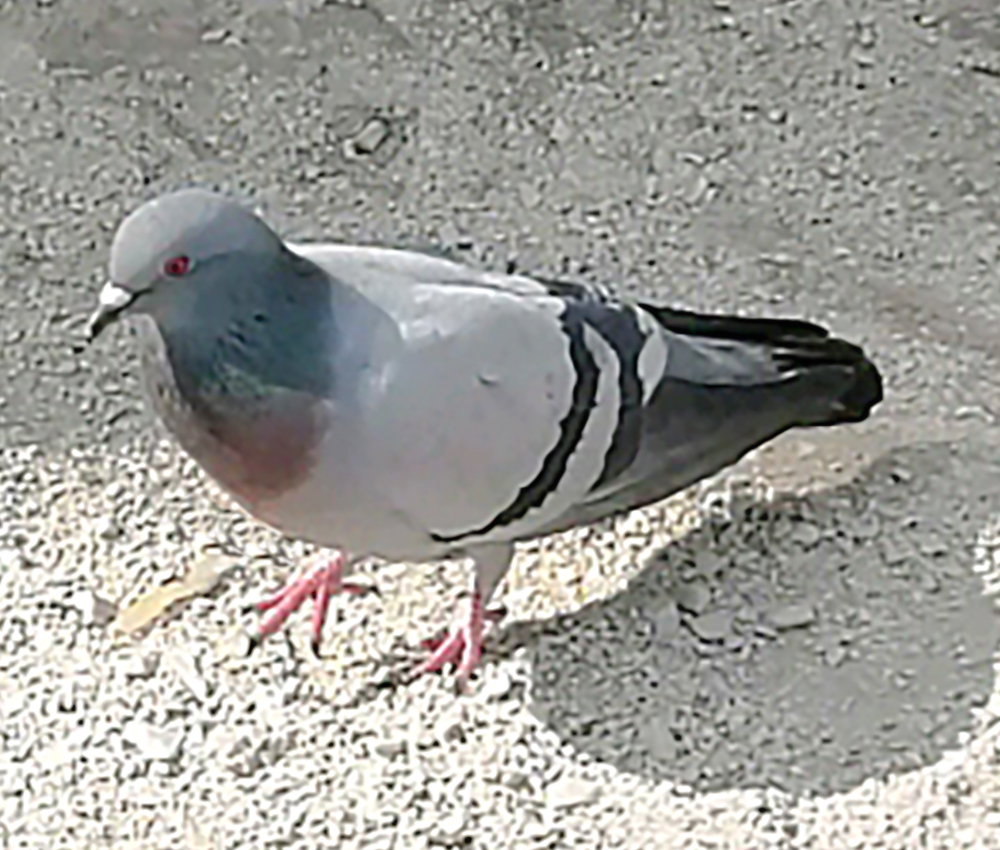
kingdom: Animalia
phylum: Chordata
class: Aves
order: Columbiformes
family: Columbidae
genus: Columba
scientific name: Columba livia
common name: Rock pigeon
